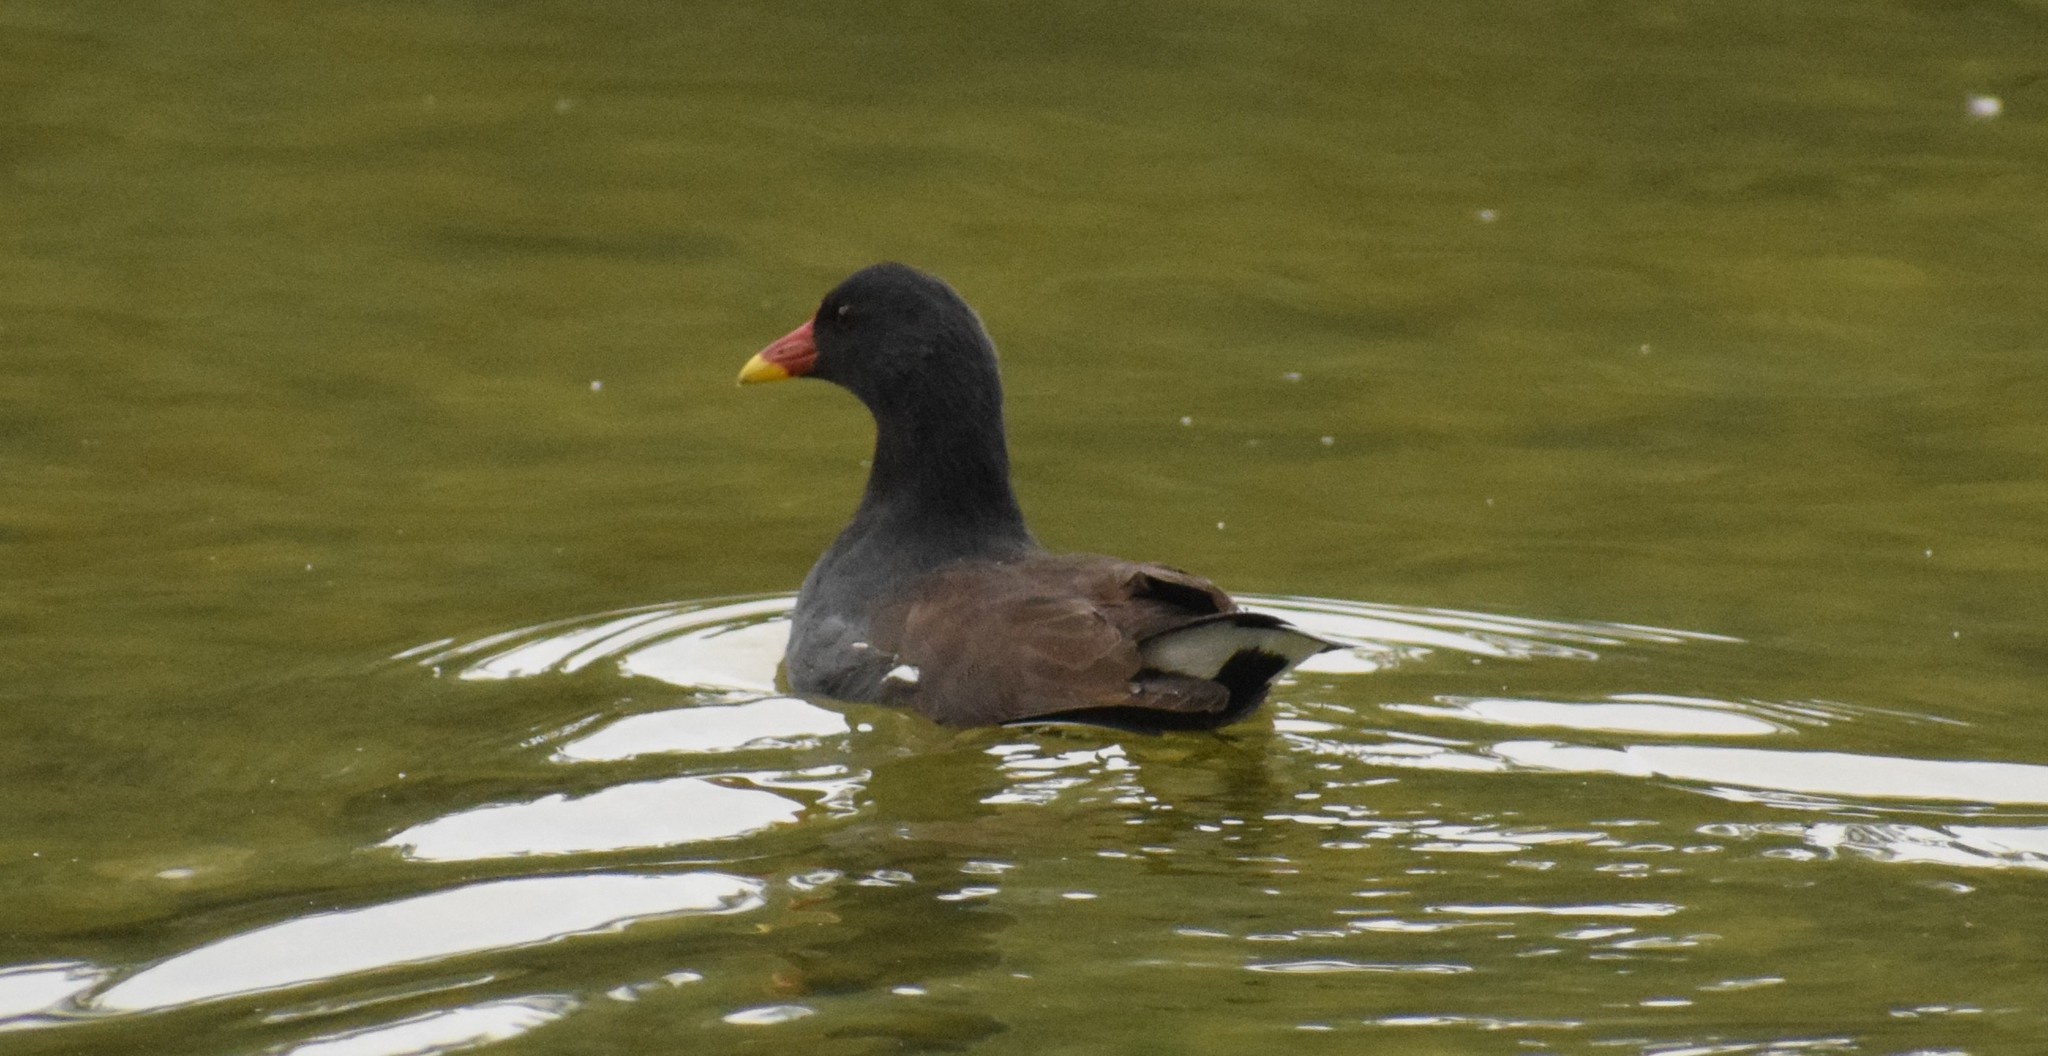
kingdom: Animalia
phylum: Chordata
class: Aves
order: Gruiformes
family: Rallidae
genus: Gallinula
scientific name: Gallinula chloropus
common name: Common moorhen
